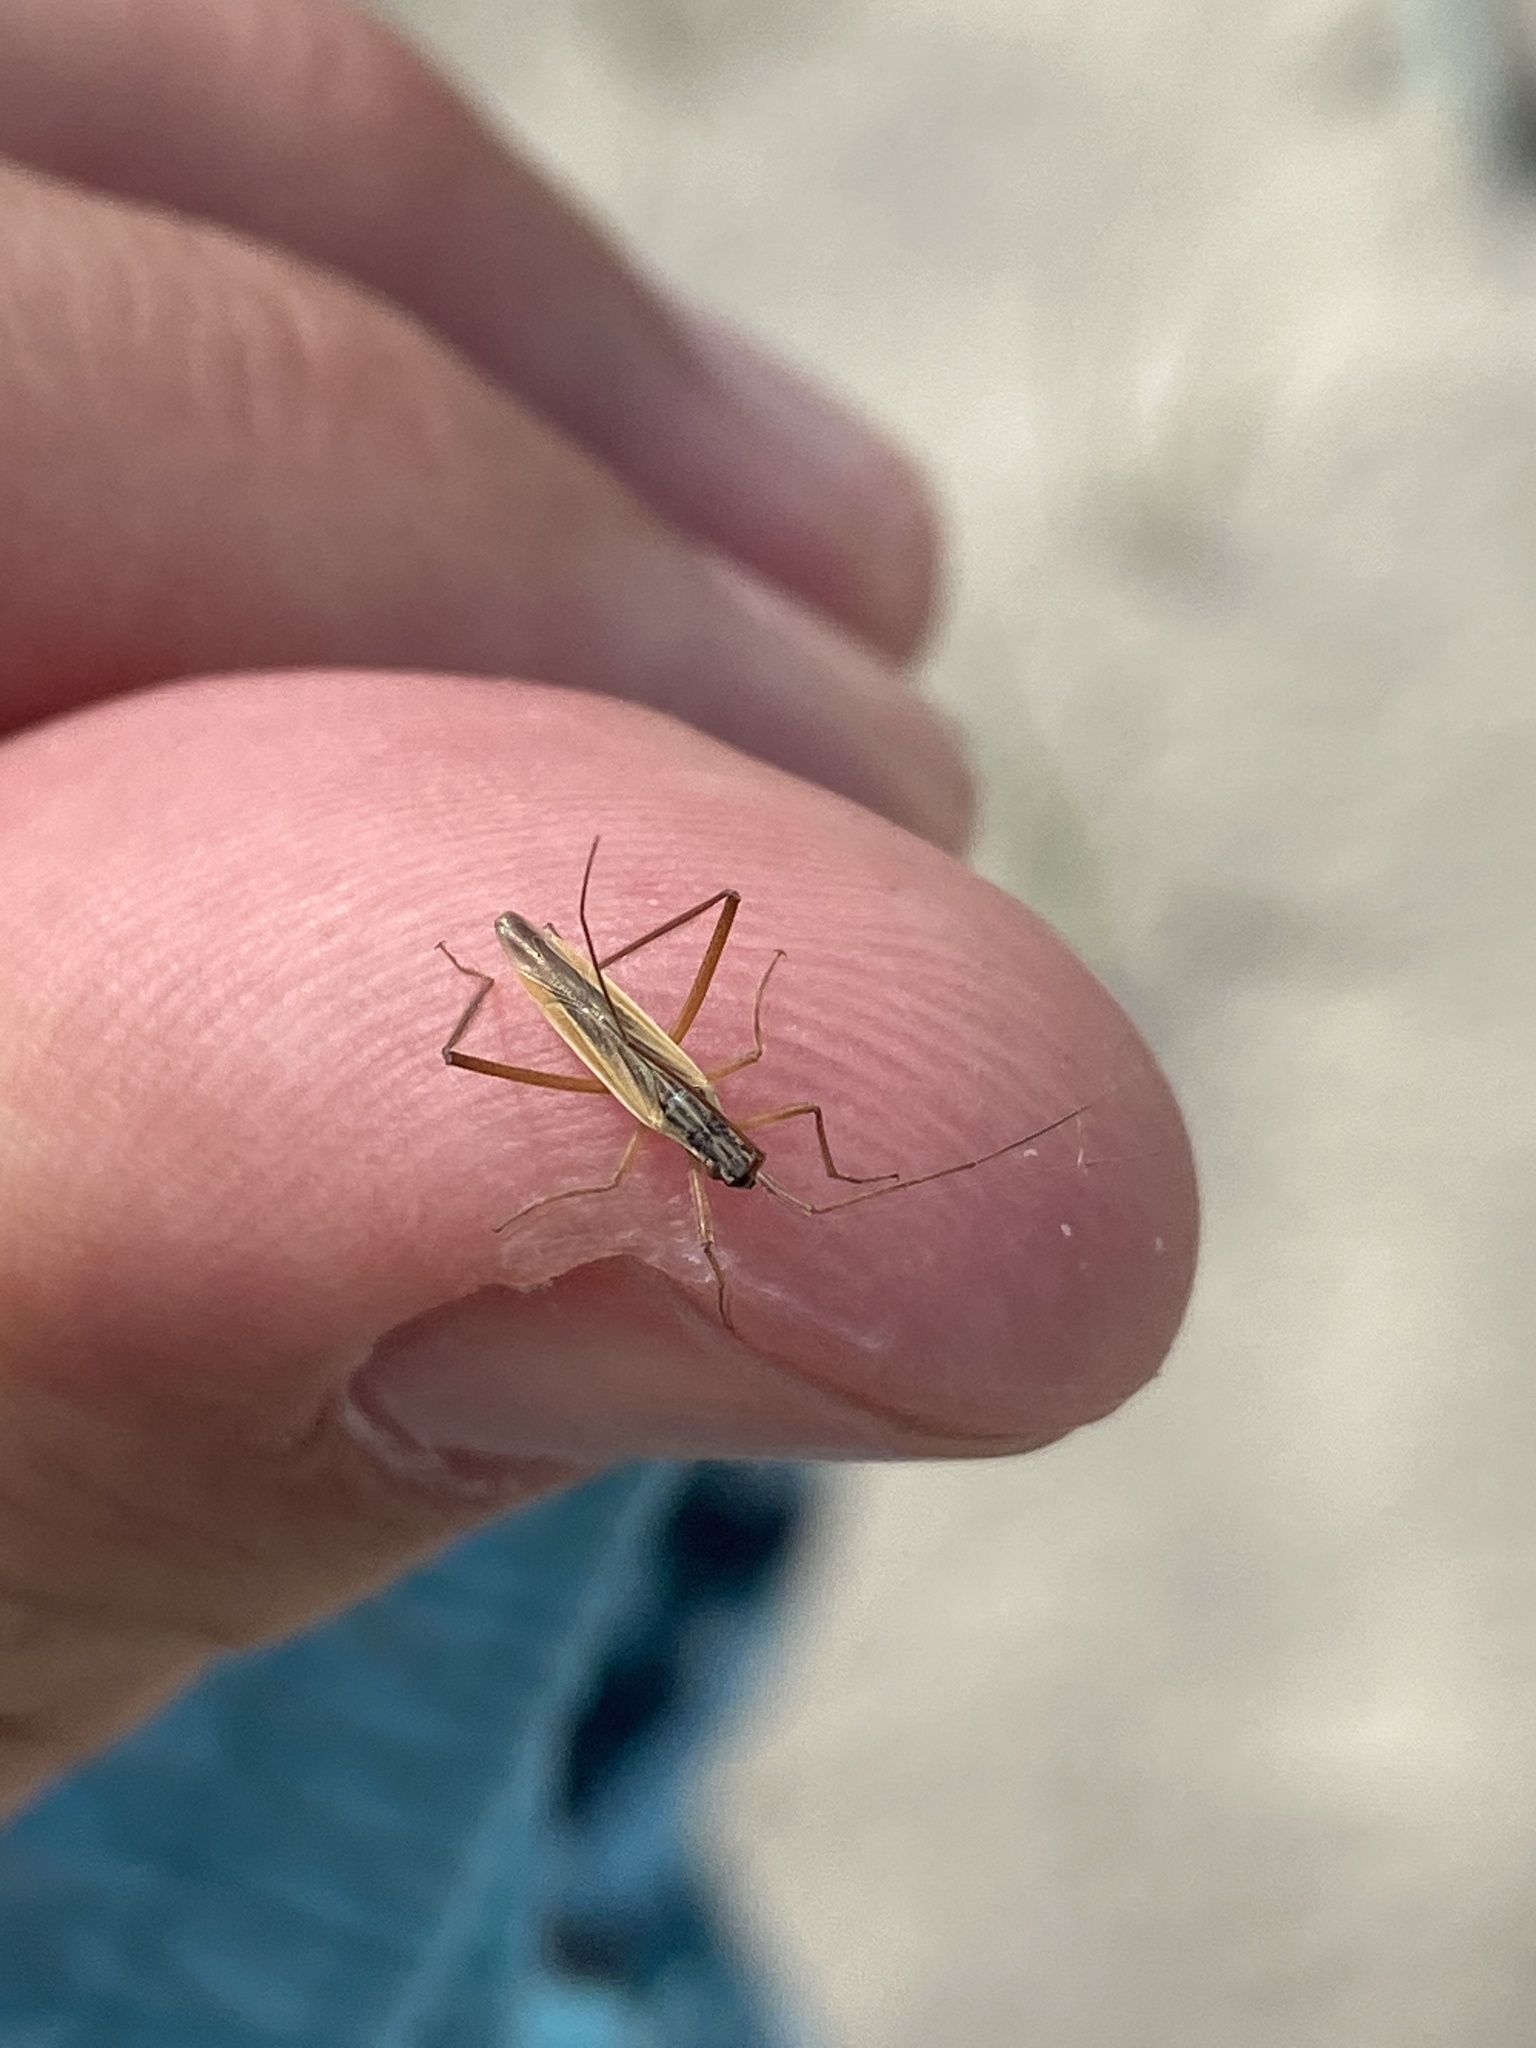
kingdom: Animalia
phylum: Arthropoda
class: Insecta
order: Hemiptera
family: Miridae
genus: Leptopterna
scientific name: Leptopterna dolabrata
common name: Meadow plant bug
